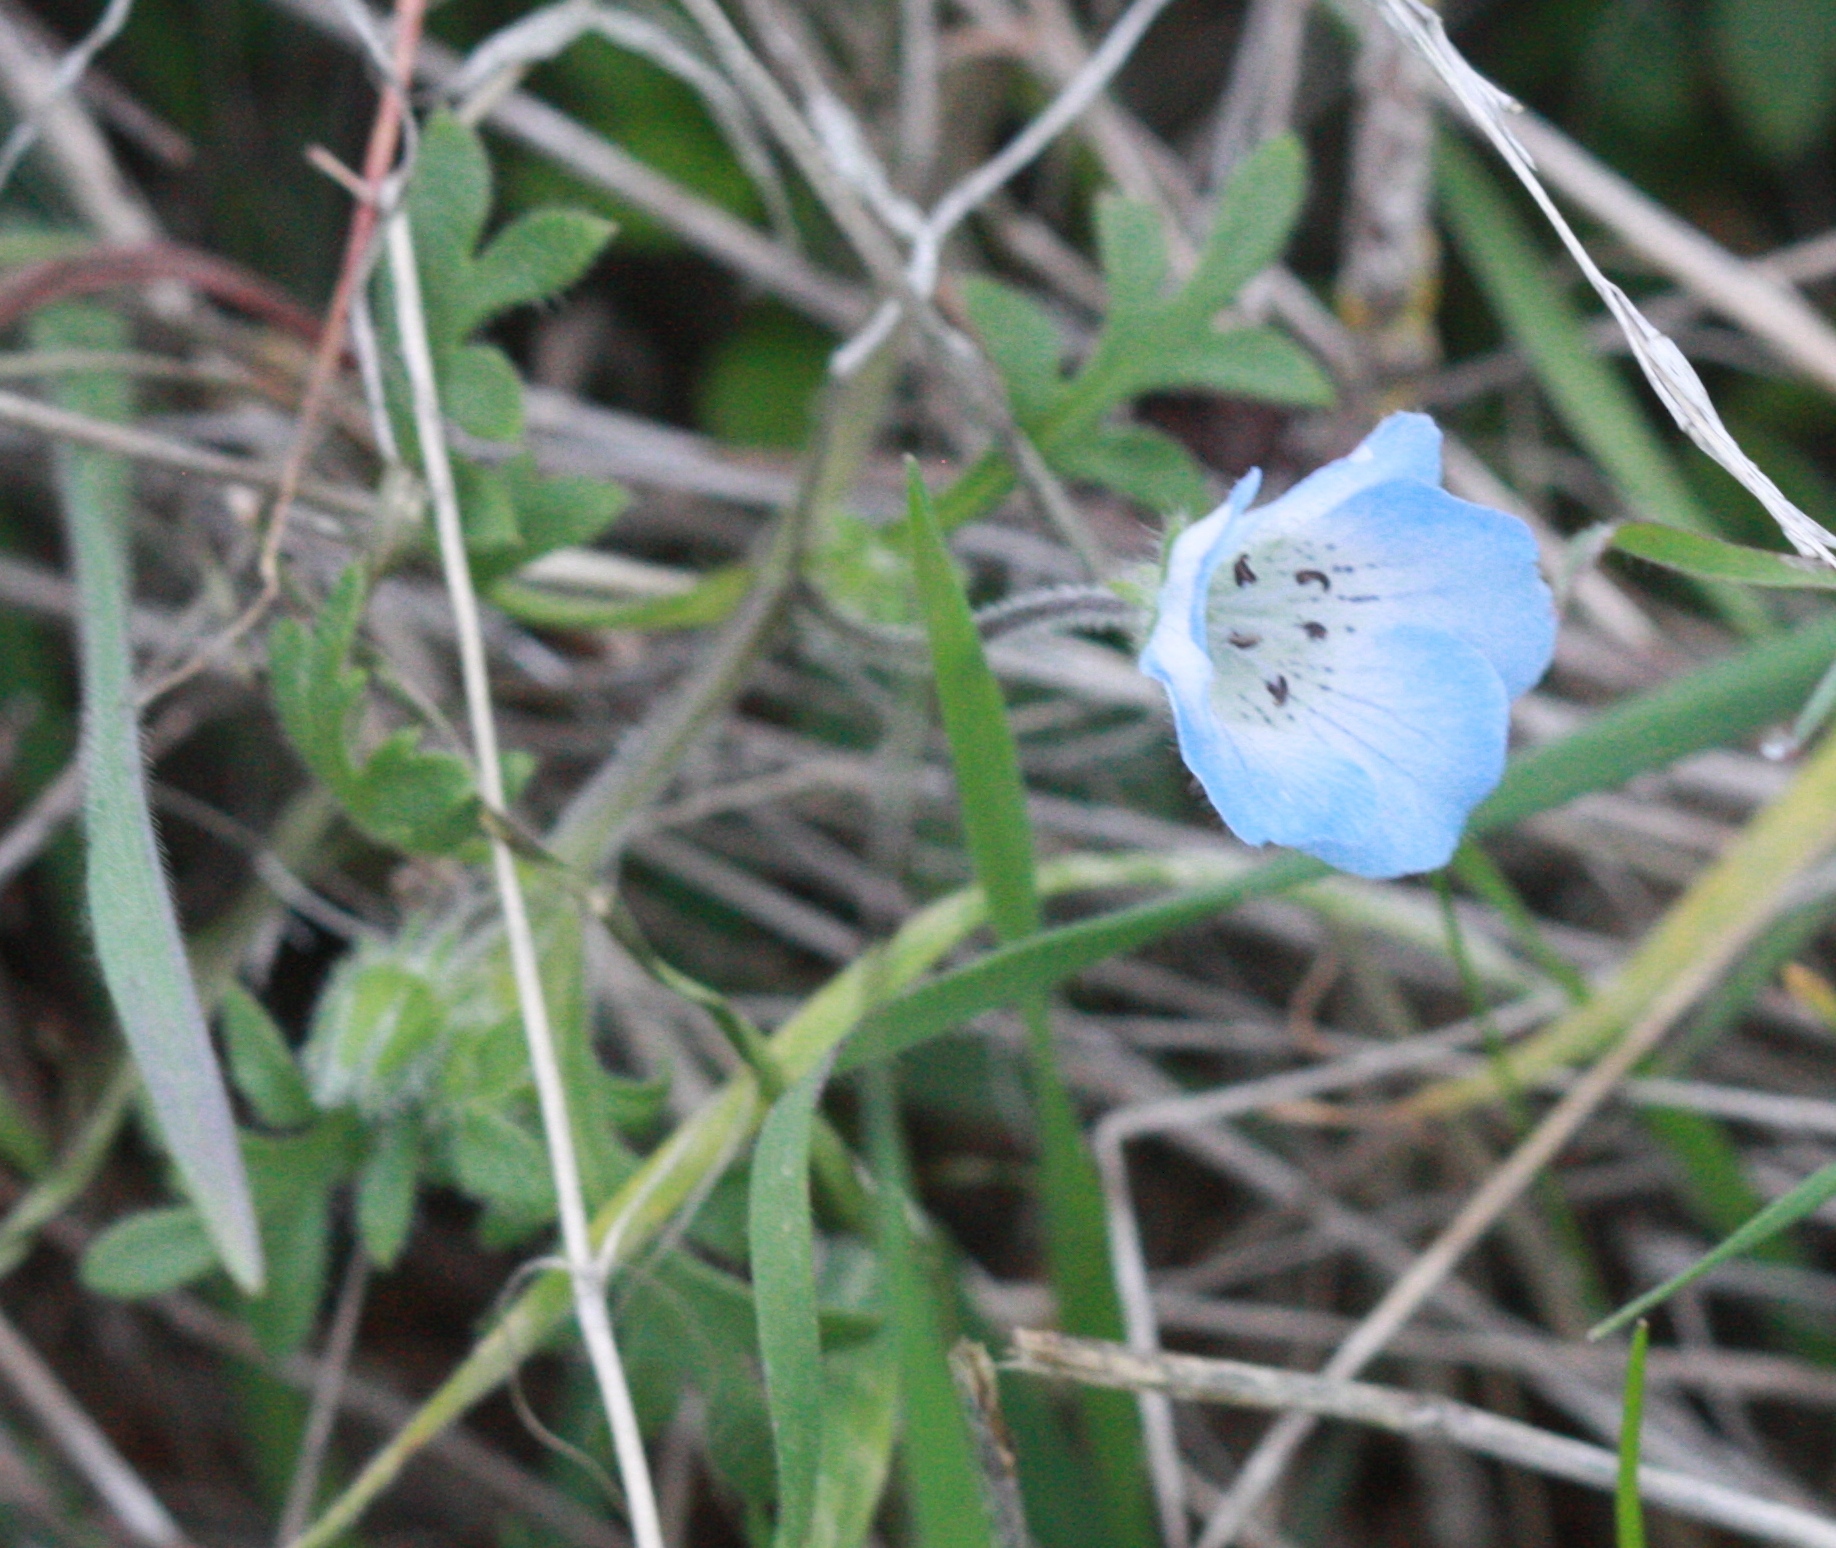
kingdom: Plantae
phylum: Tracheophyta
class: Magnoliopsida
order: Boraginales
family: Hydrophyllaceae
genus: Nemophila
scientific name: Nemophila menziesii
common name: Baby's-blue-eyes
